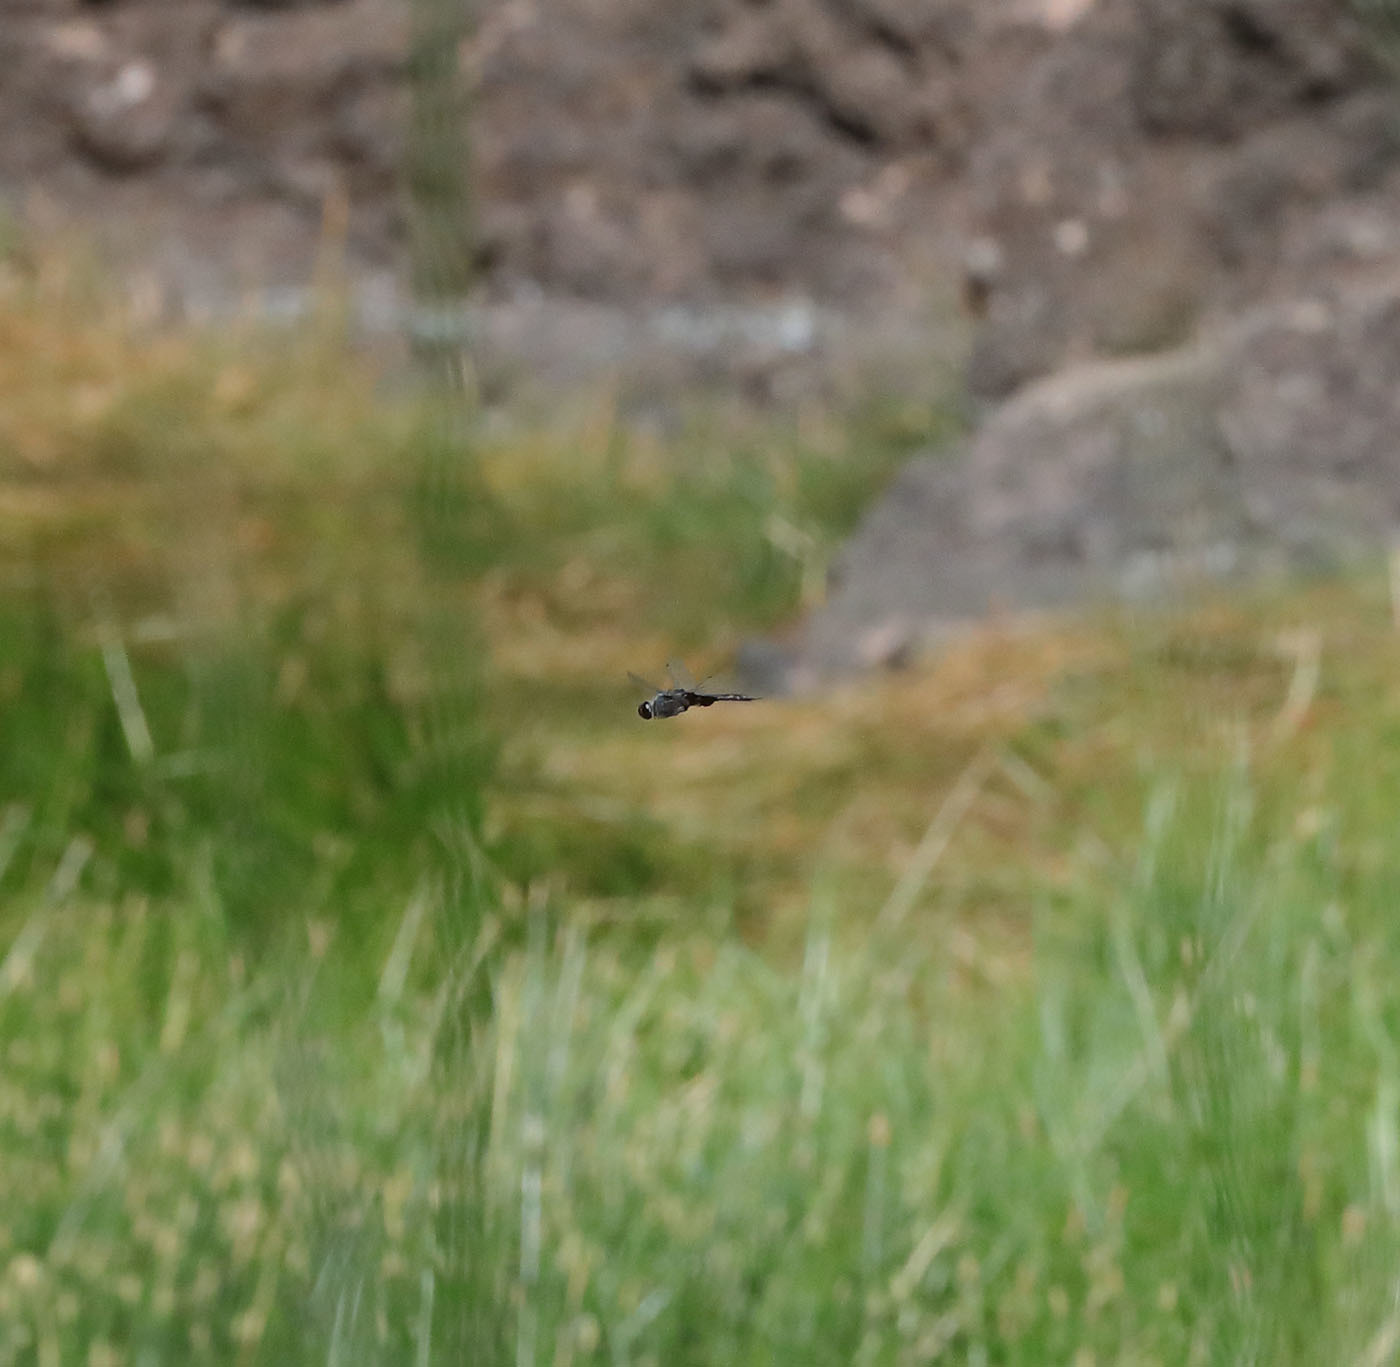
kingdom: Animalia
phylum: Arthropoda
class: Insecta
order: Odonata
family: Libellulidae
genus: Tramea
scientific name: Tramea lacerata
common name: Black saddlebags
